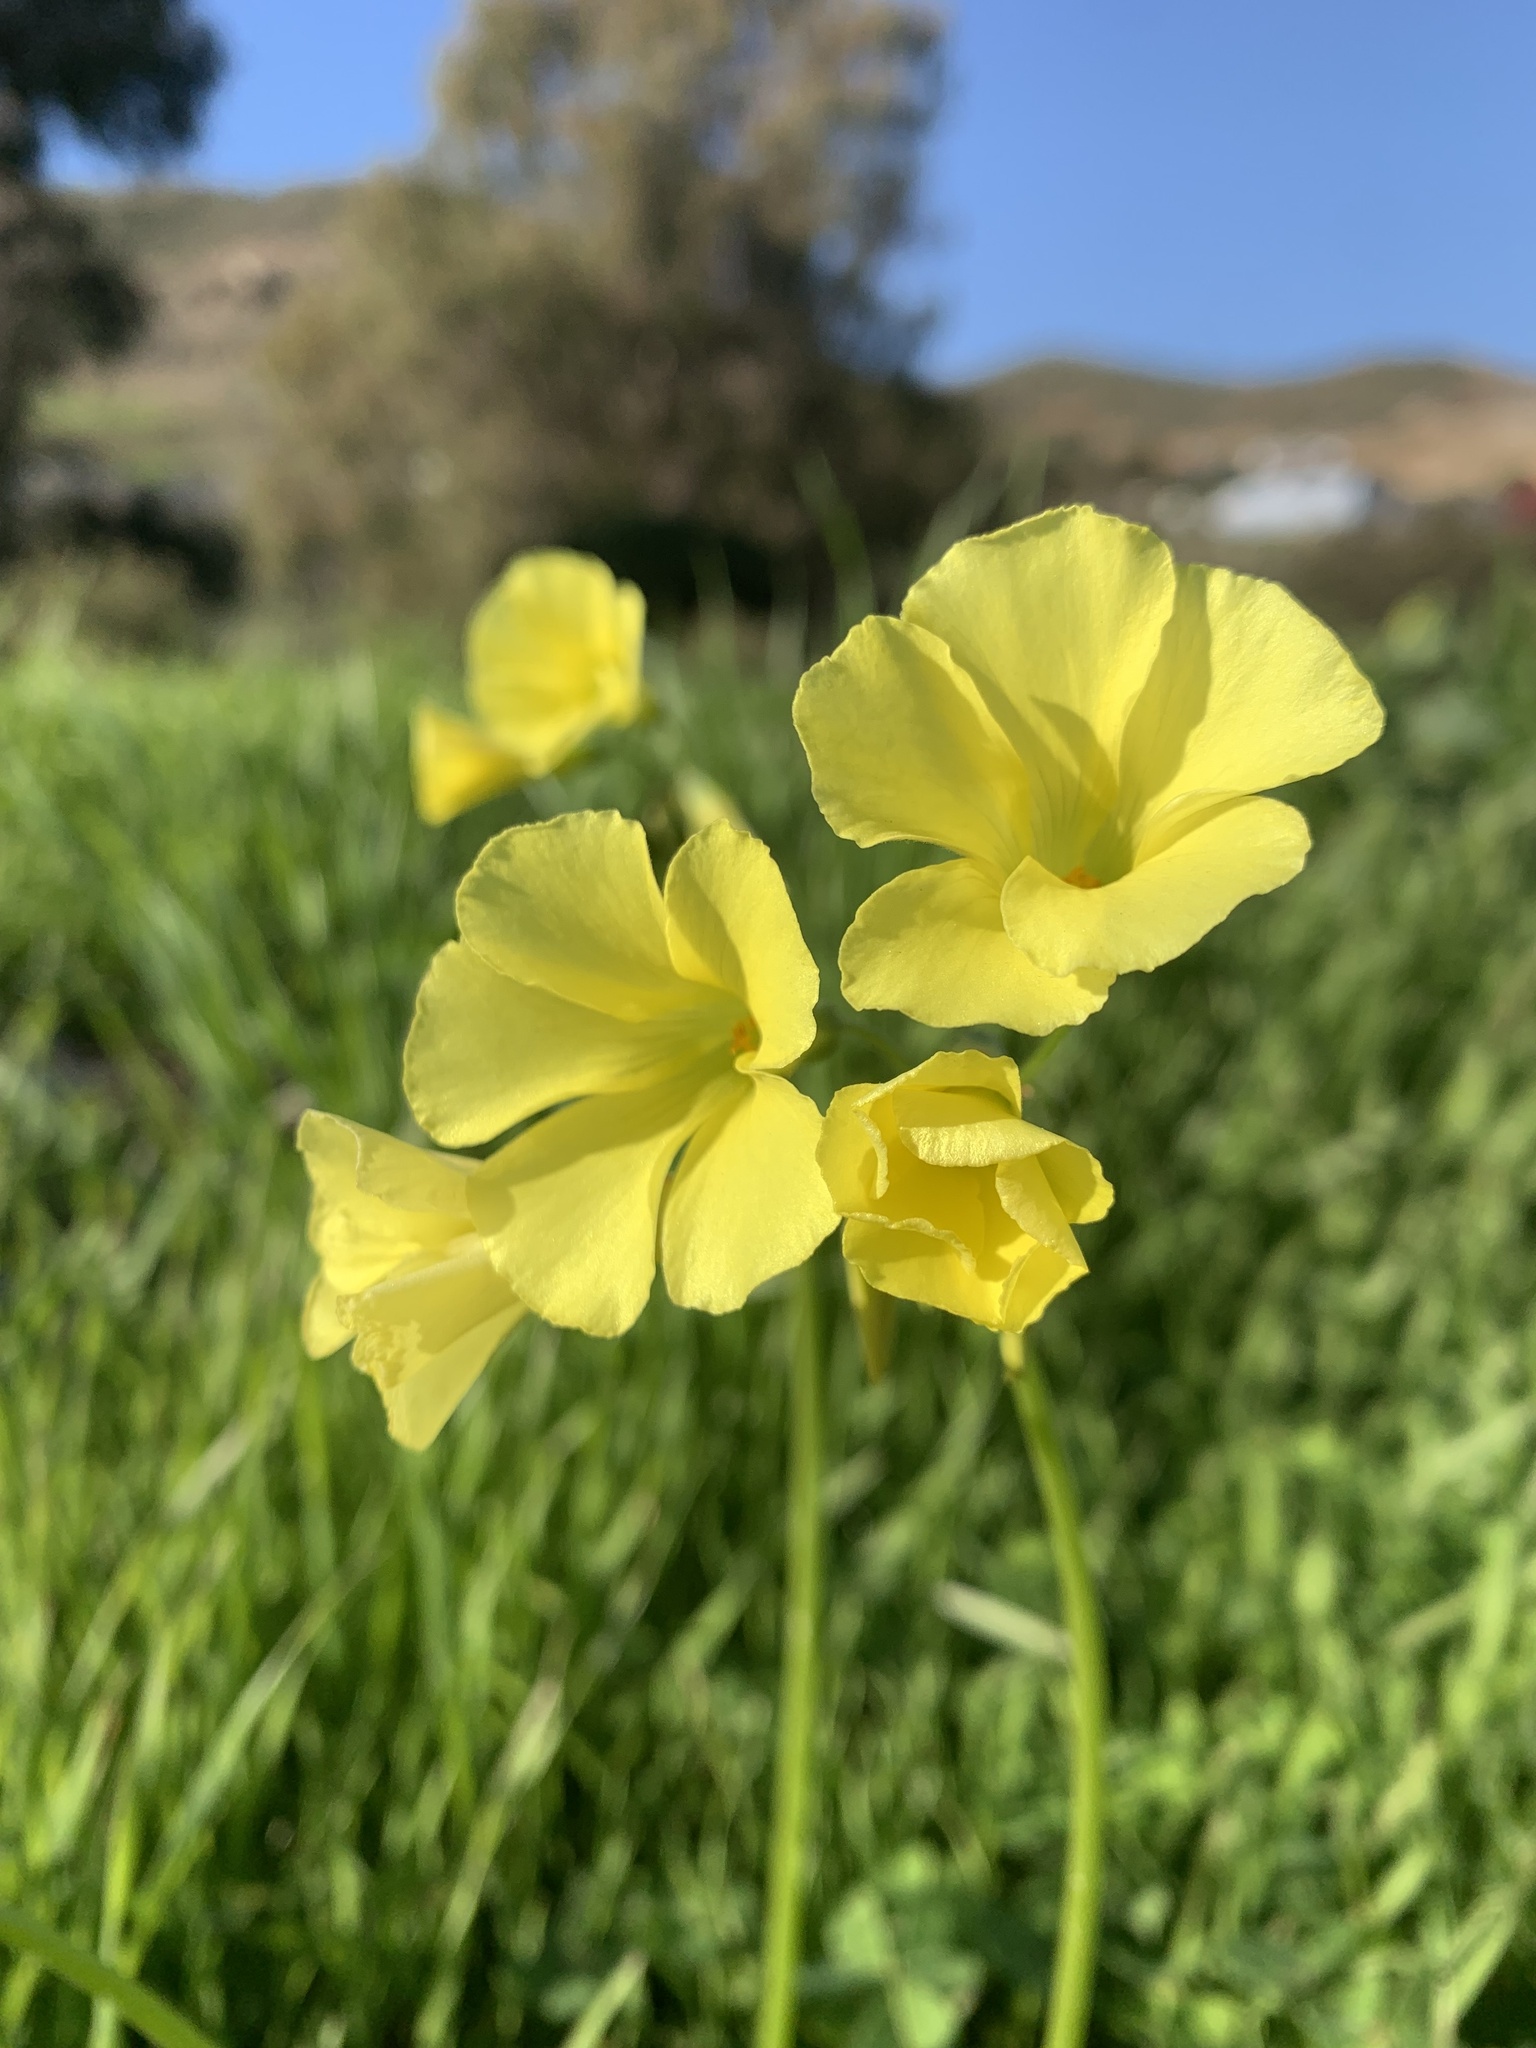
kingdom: Plantae
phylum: Tracheophyta
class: Magnoliopsida
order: Oxalidales
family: Oxalidaceae
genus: Oxalis
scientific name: Oxalis pes-caprae
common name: Bermuda-buttercup
